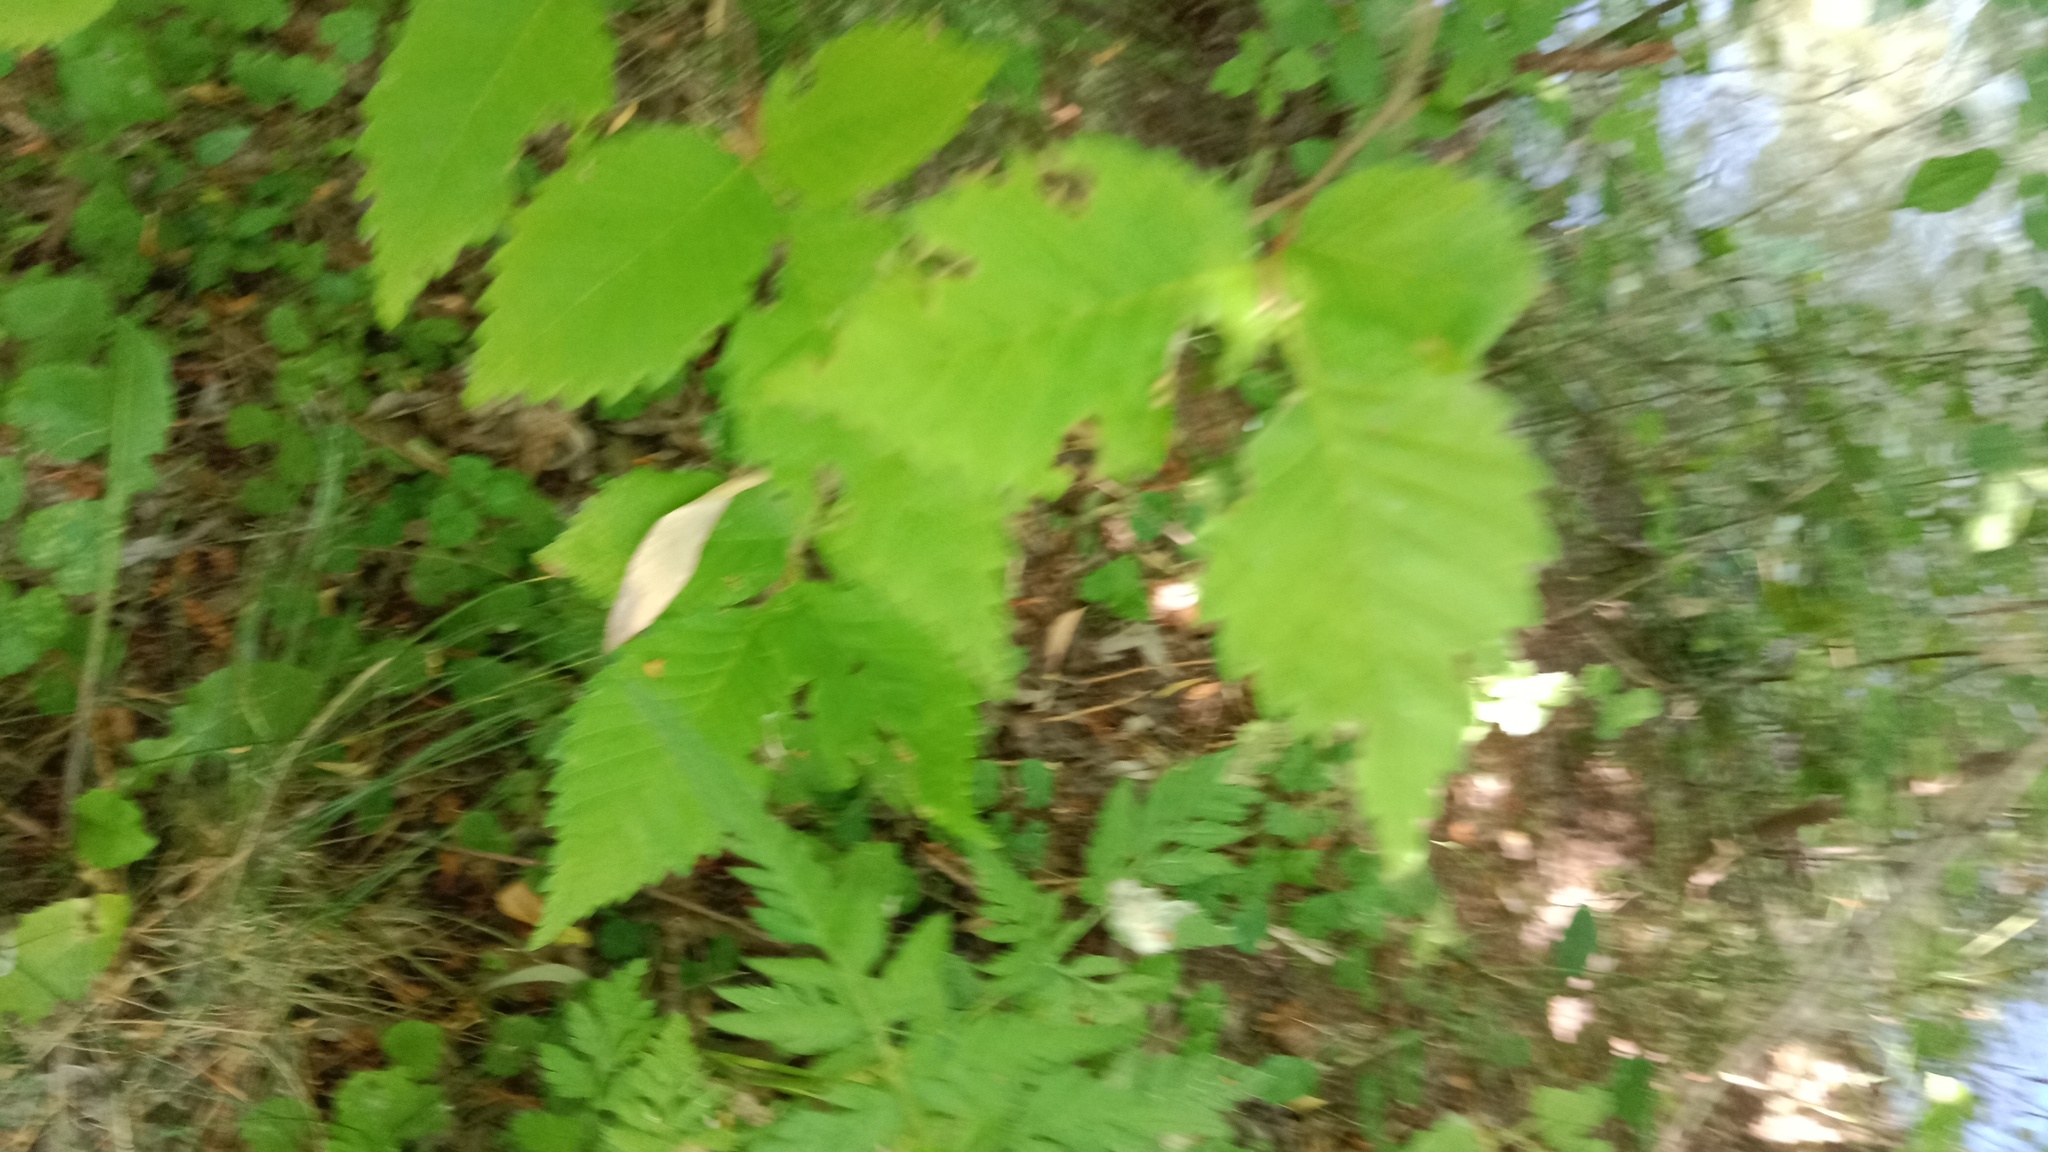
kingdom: Plantae
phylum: Tracheophyta
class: Magnoliopsida
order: Rosales
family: Ulmaceae
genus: Ulmus
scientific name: Ulmus minor
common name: Small-leaved elm
